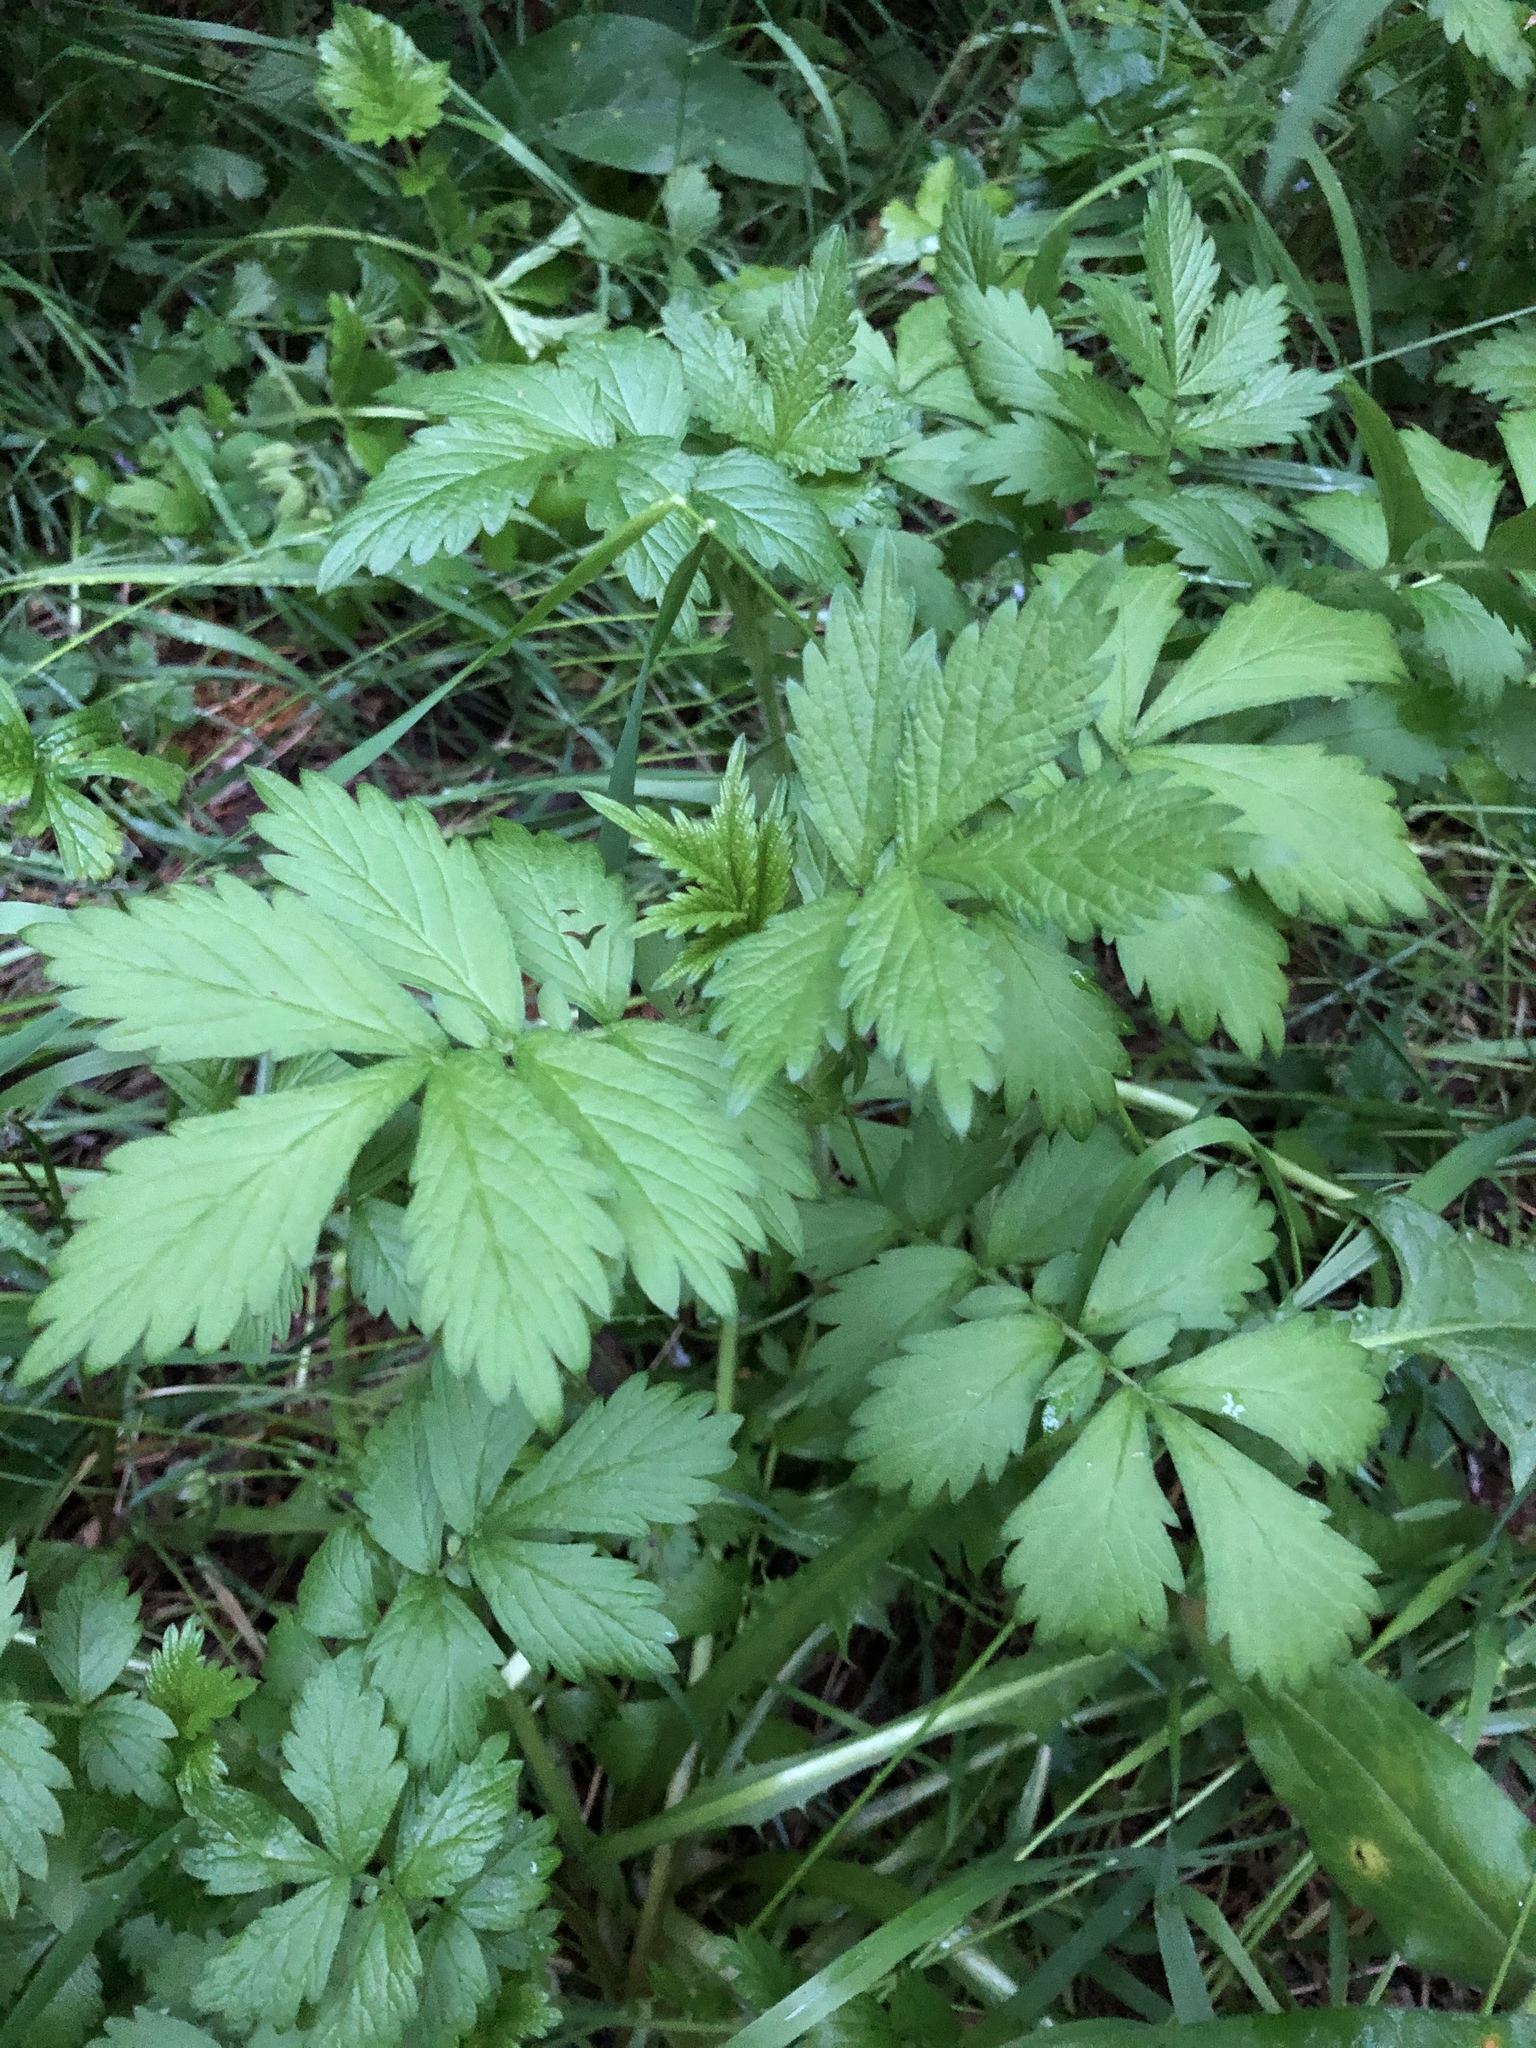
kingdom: Plantae
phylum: Tracheophyta
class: Magnoliopsida
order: Rosales
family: Rosaceae
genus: Agrimonia
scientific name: Agrimonia pilosa
